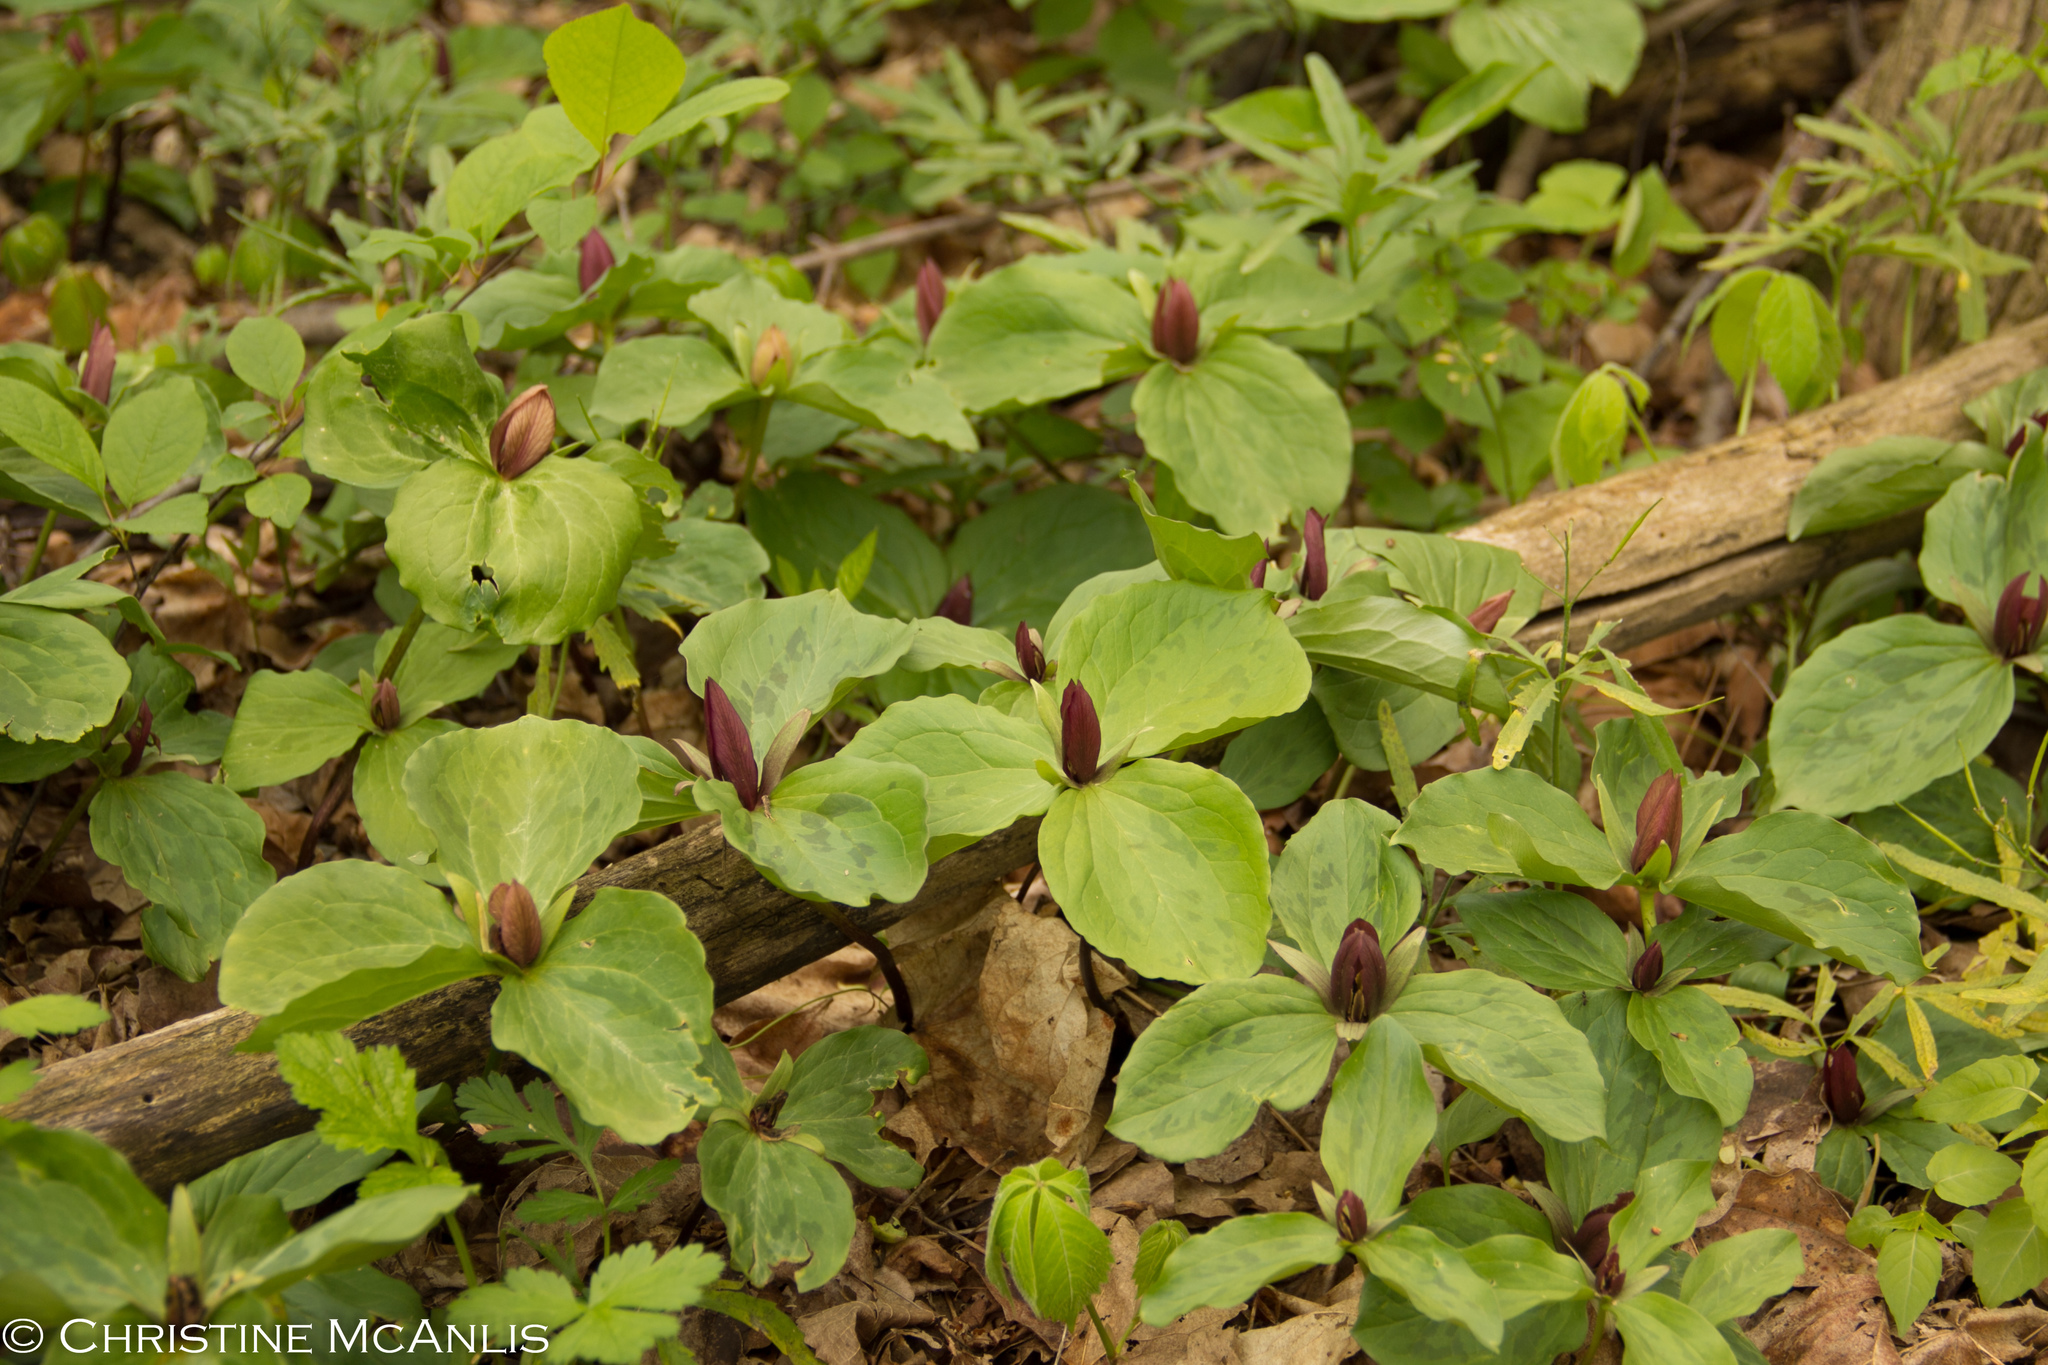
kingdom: Plantae
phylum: Tracheophyta
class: Liliopsida
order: Liliales
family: Melanthiaceae
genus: Trillium
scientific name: Trillium sessile
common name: Sessile trillium
